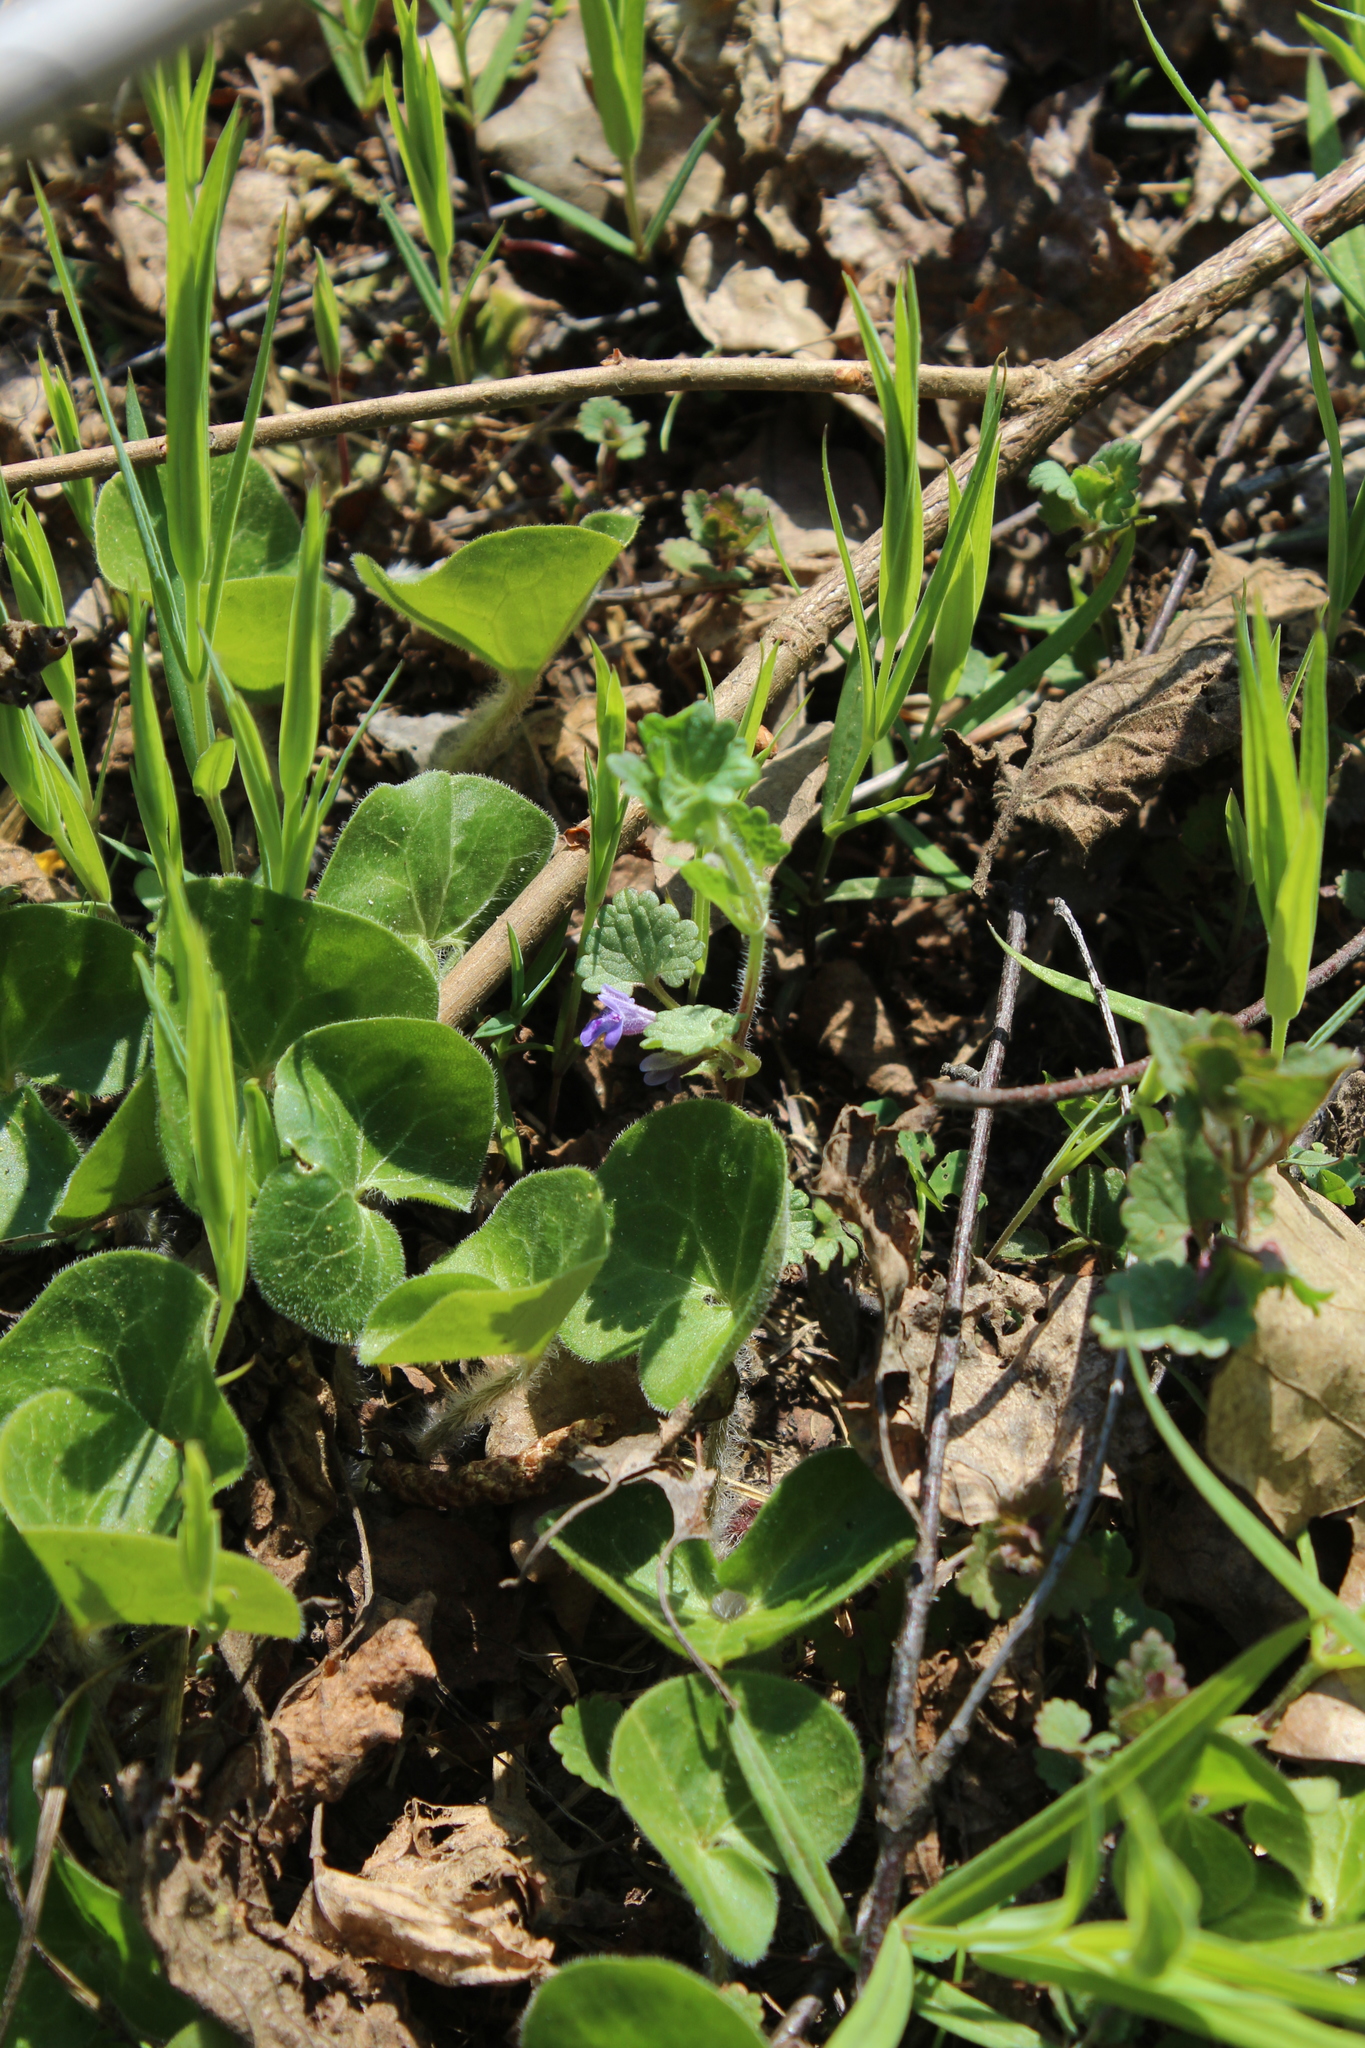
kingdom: Plantae
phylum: Tracheophyta
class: Magnoliopsida
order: Lamiales
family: Lamiaceae
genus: Glechoma
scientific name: Glechoma hederacea
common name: Ground ivy
